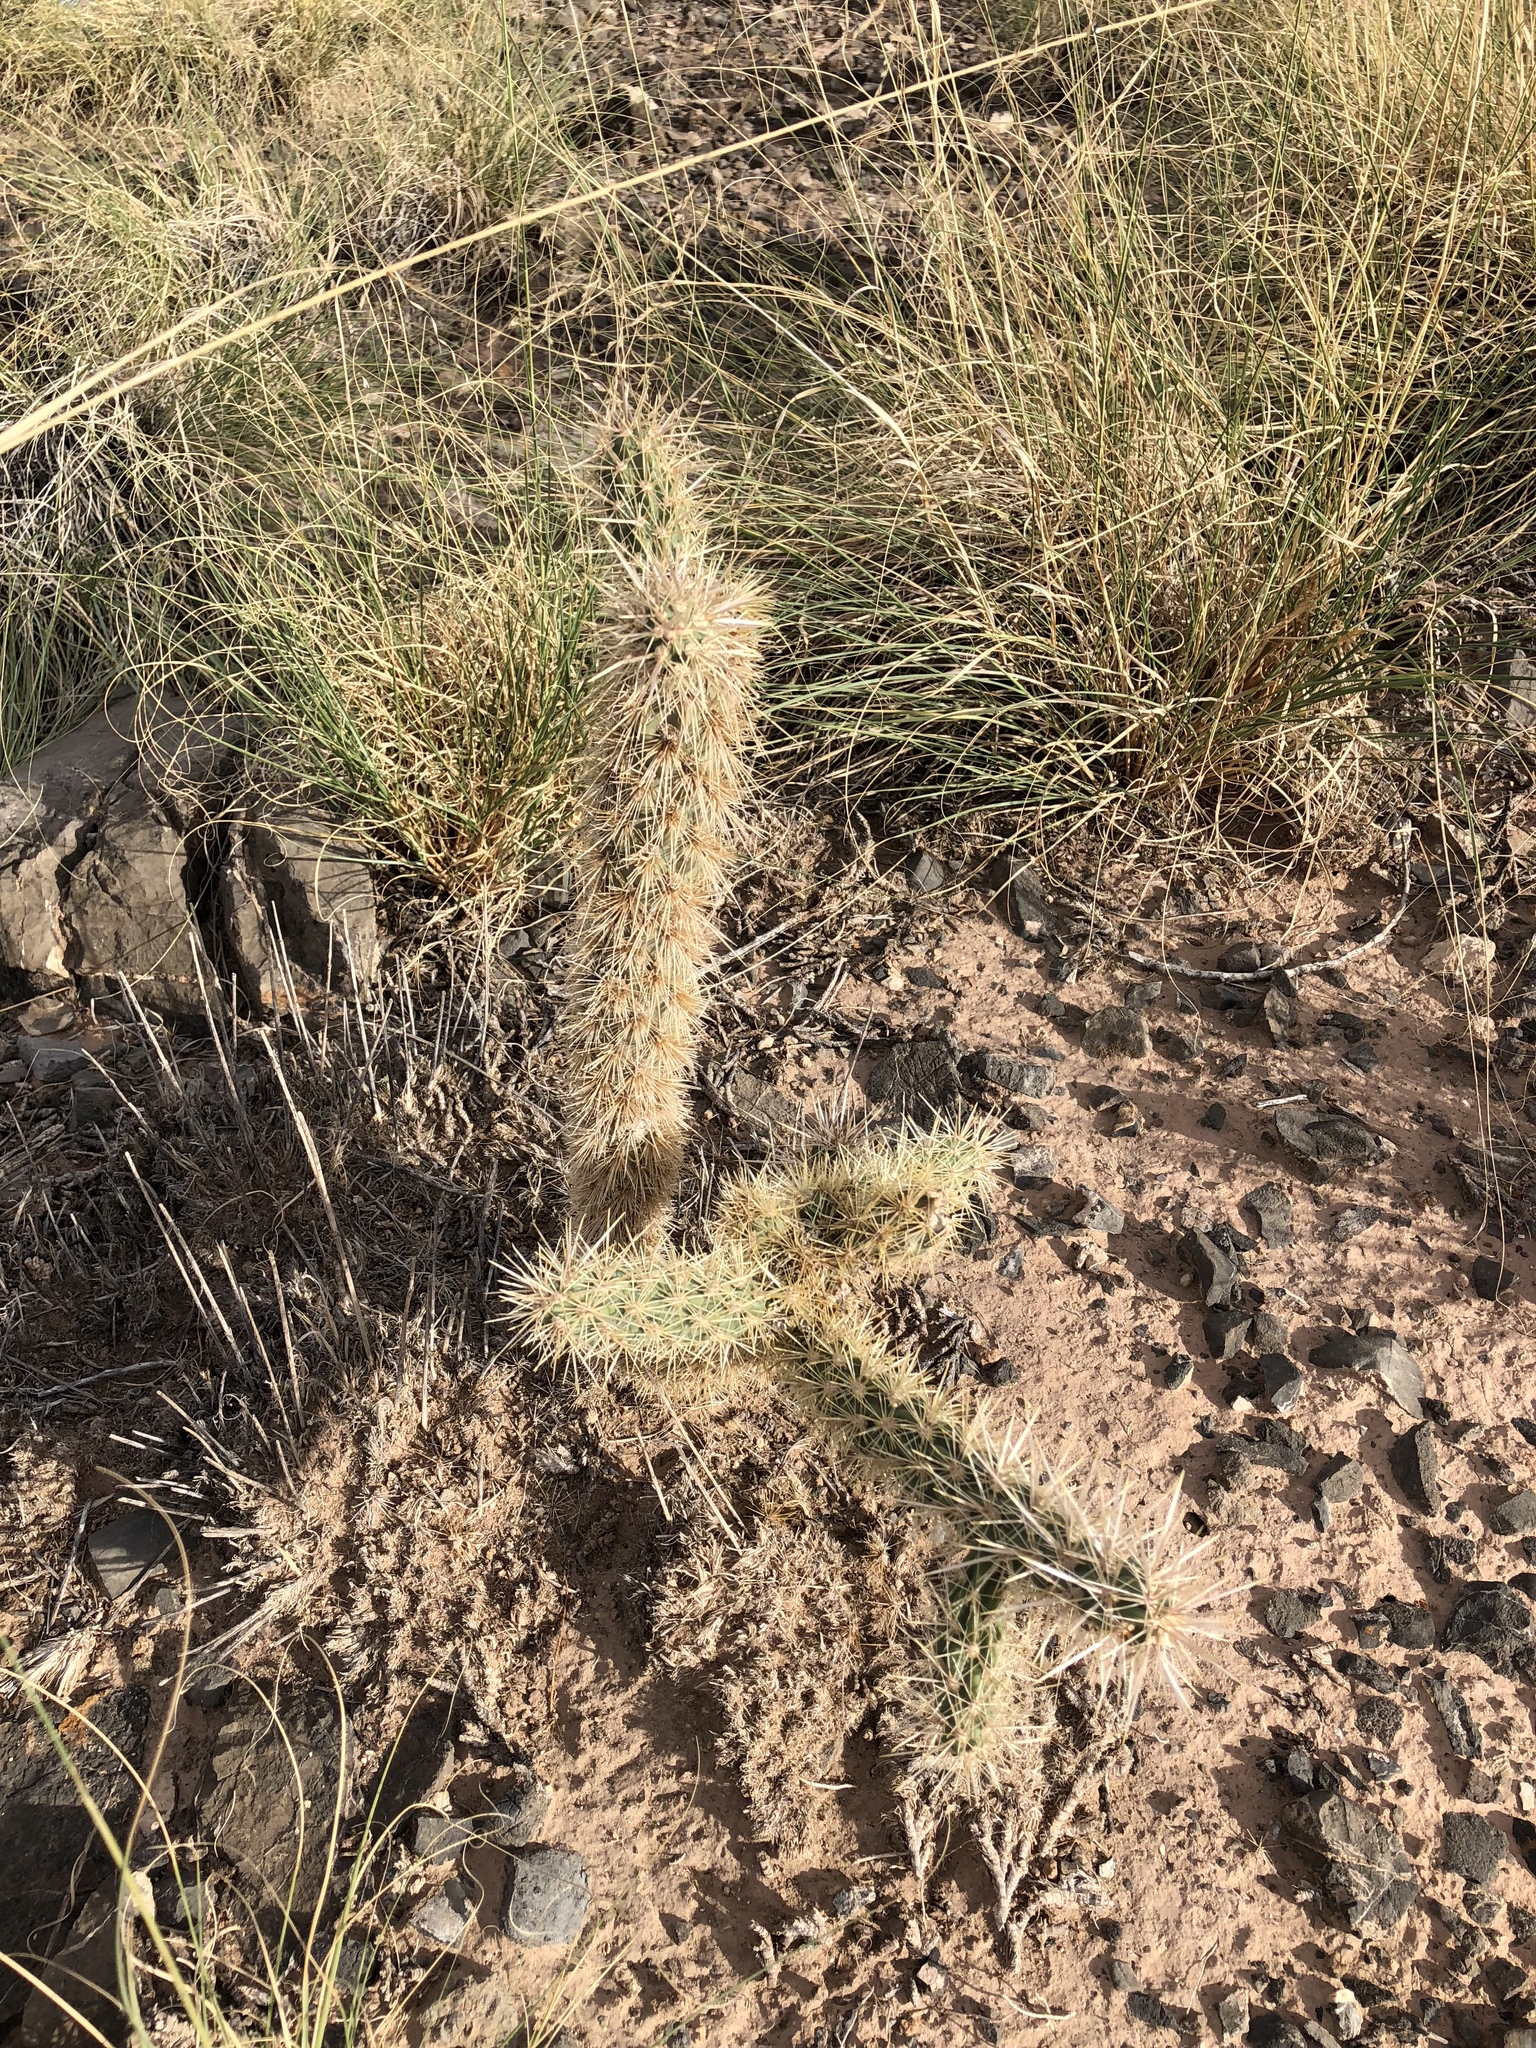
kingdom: Plantae
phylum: Tracheophyta
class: Magnoliopsida
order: Caryophyllales
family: Cactaceae
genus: Cylindropuntia
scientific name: Cylindropuntia imbricata
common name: Candelabrum cactus
